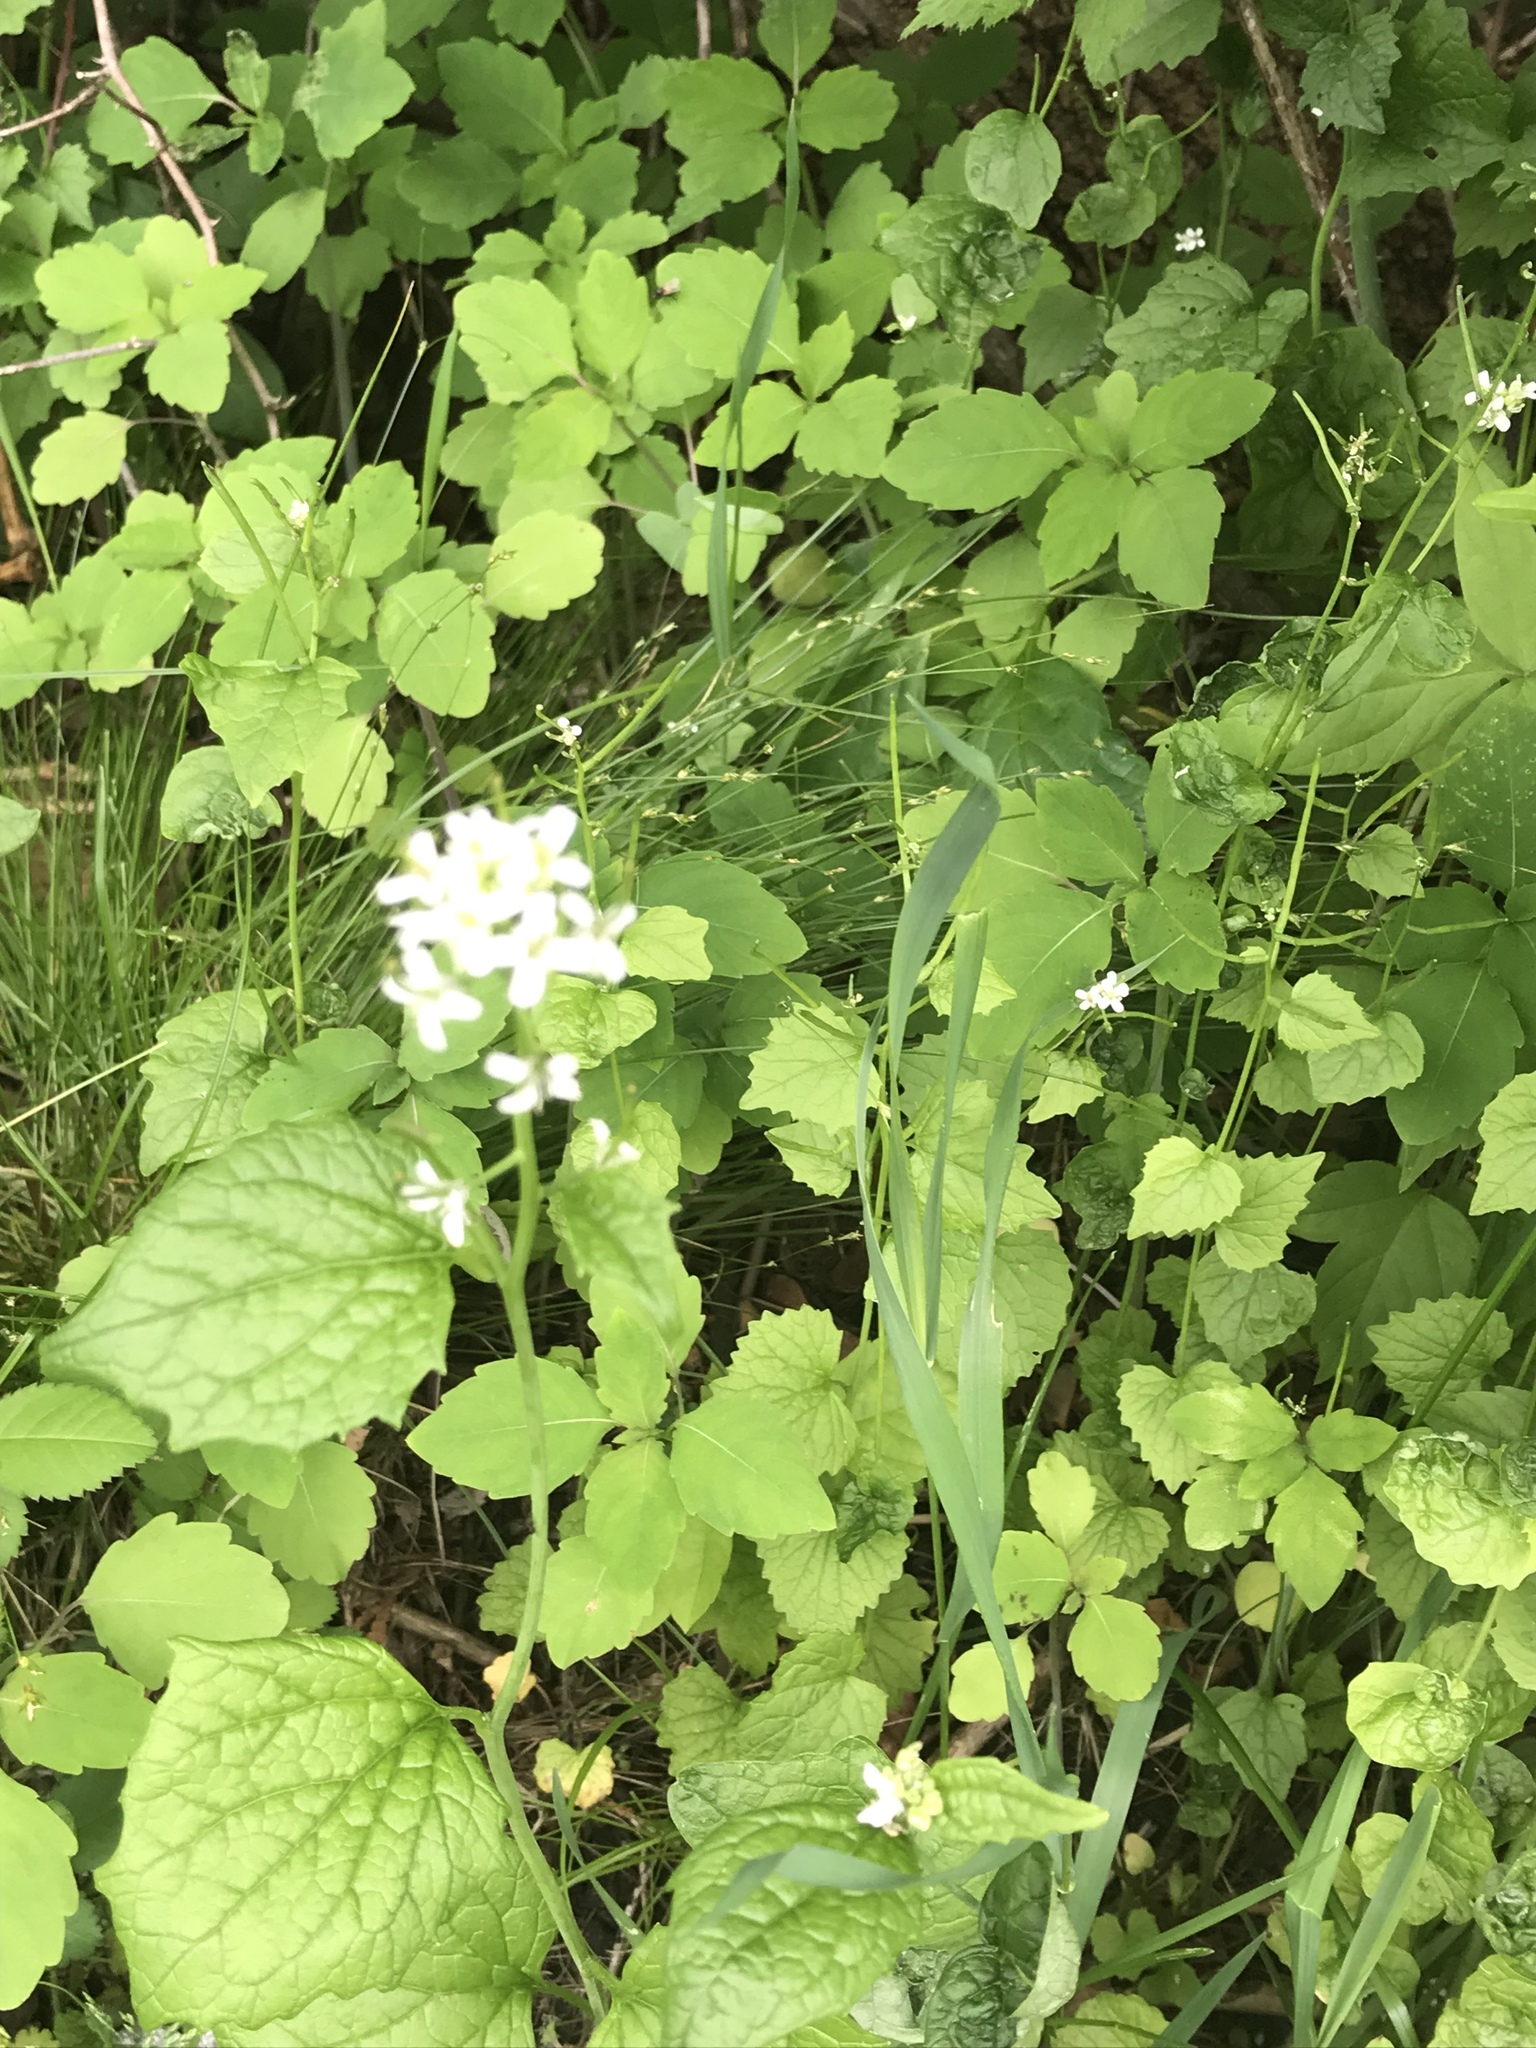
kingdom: Plantae
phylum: Tracheophyta
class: Magnoliopsida
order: Brassicales
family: Brassicaceae
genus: Alliaria
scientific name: Alliaria petiolata
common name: Garlic mustard
